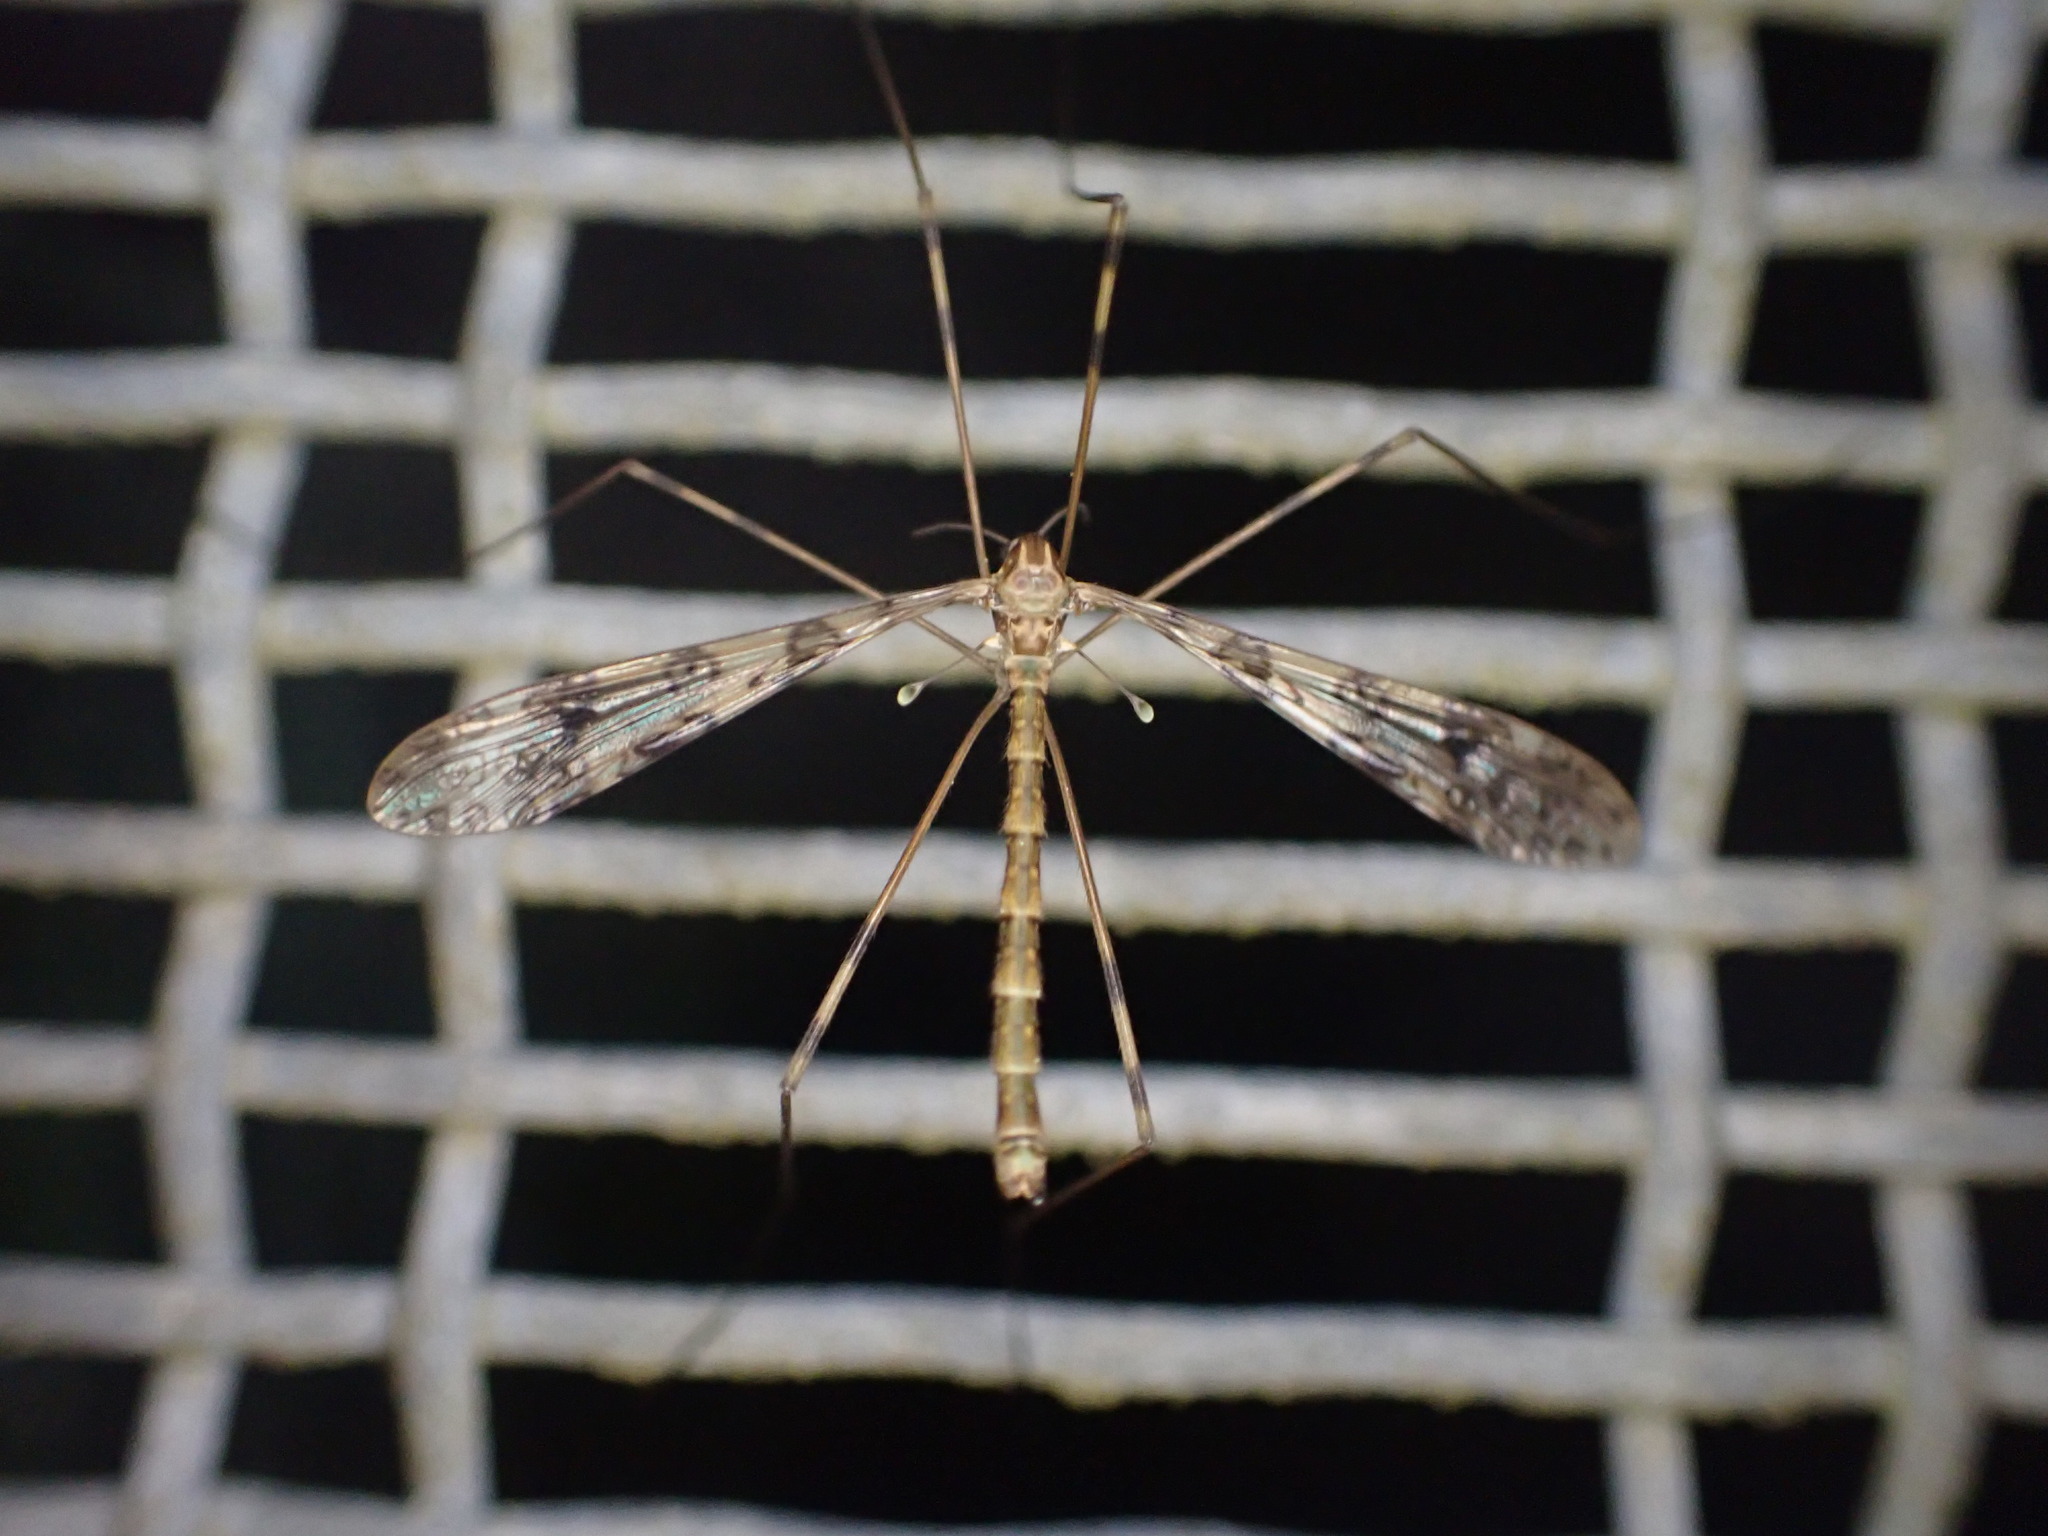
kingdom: Animalia
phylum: Arthropoda
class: Insecta
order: Diptera
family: Limoniidae
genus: Austrolimnophila
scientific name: Austrolimnophila argus
